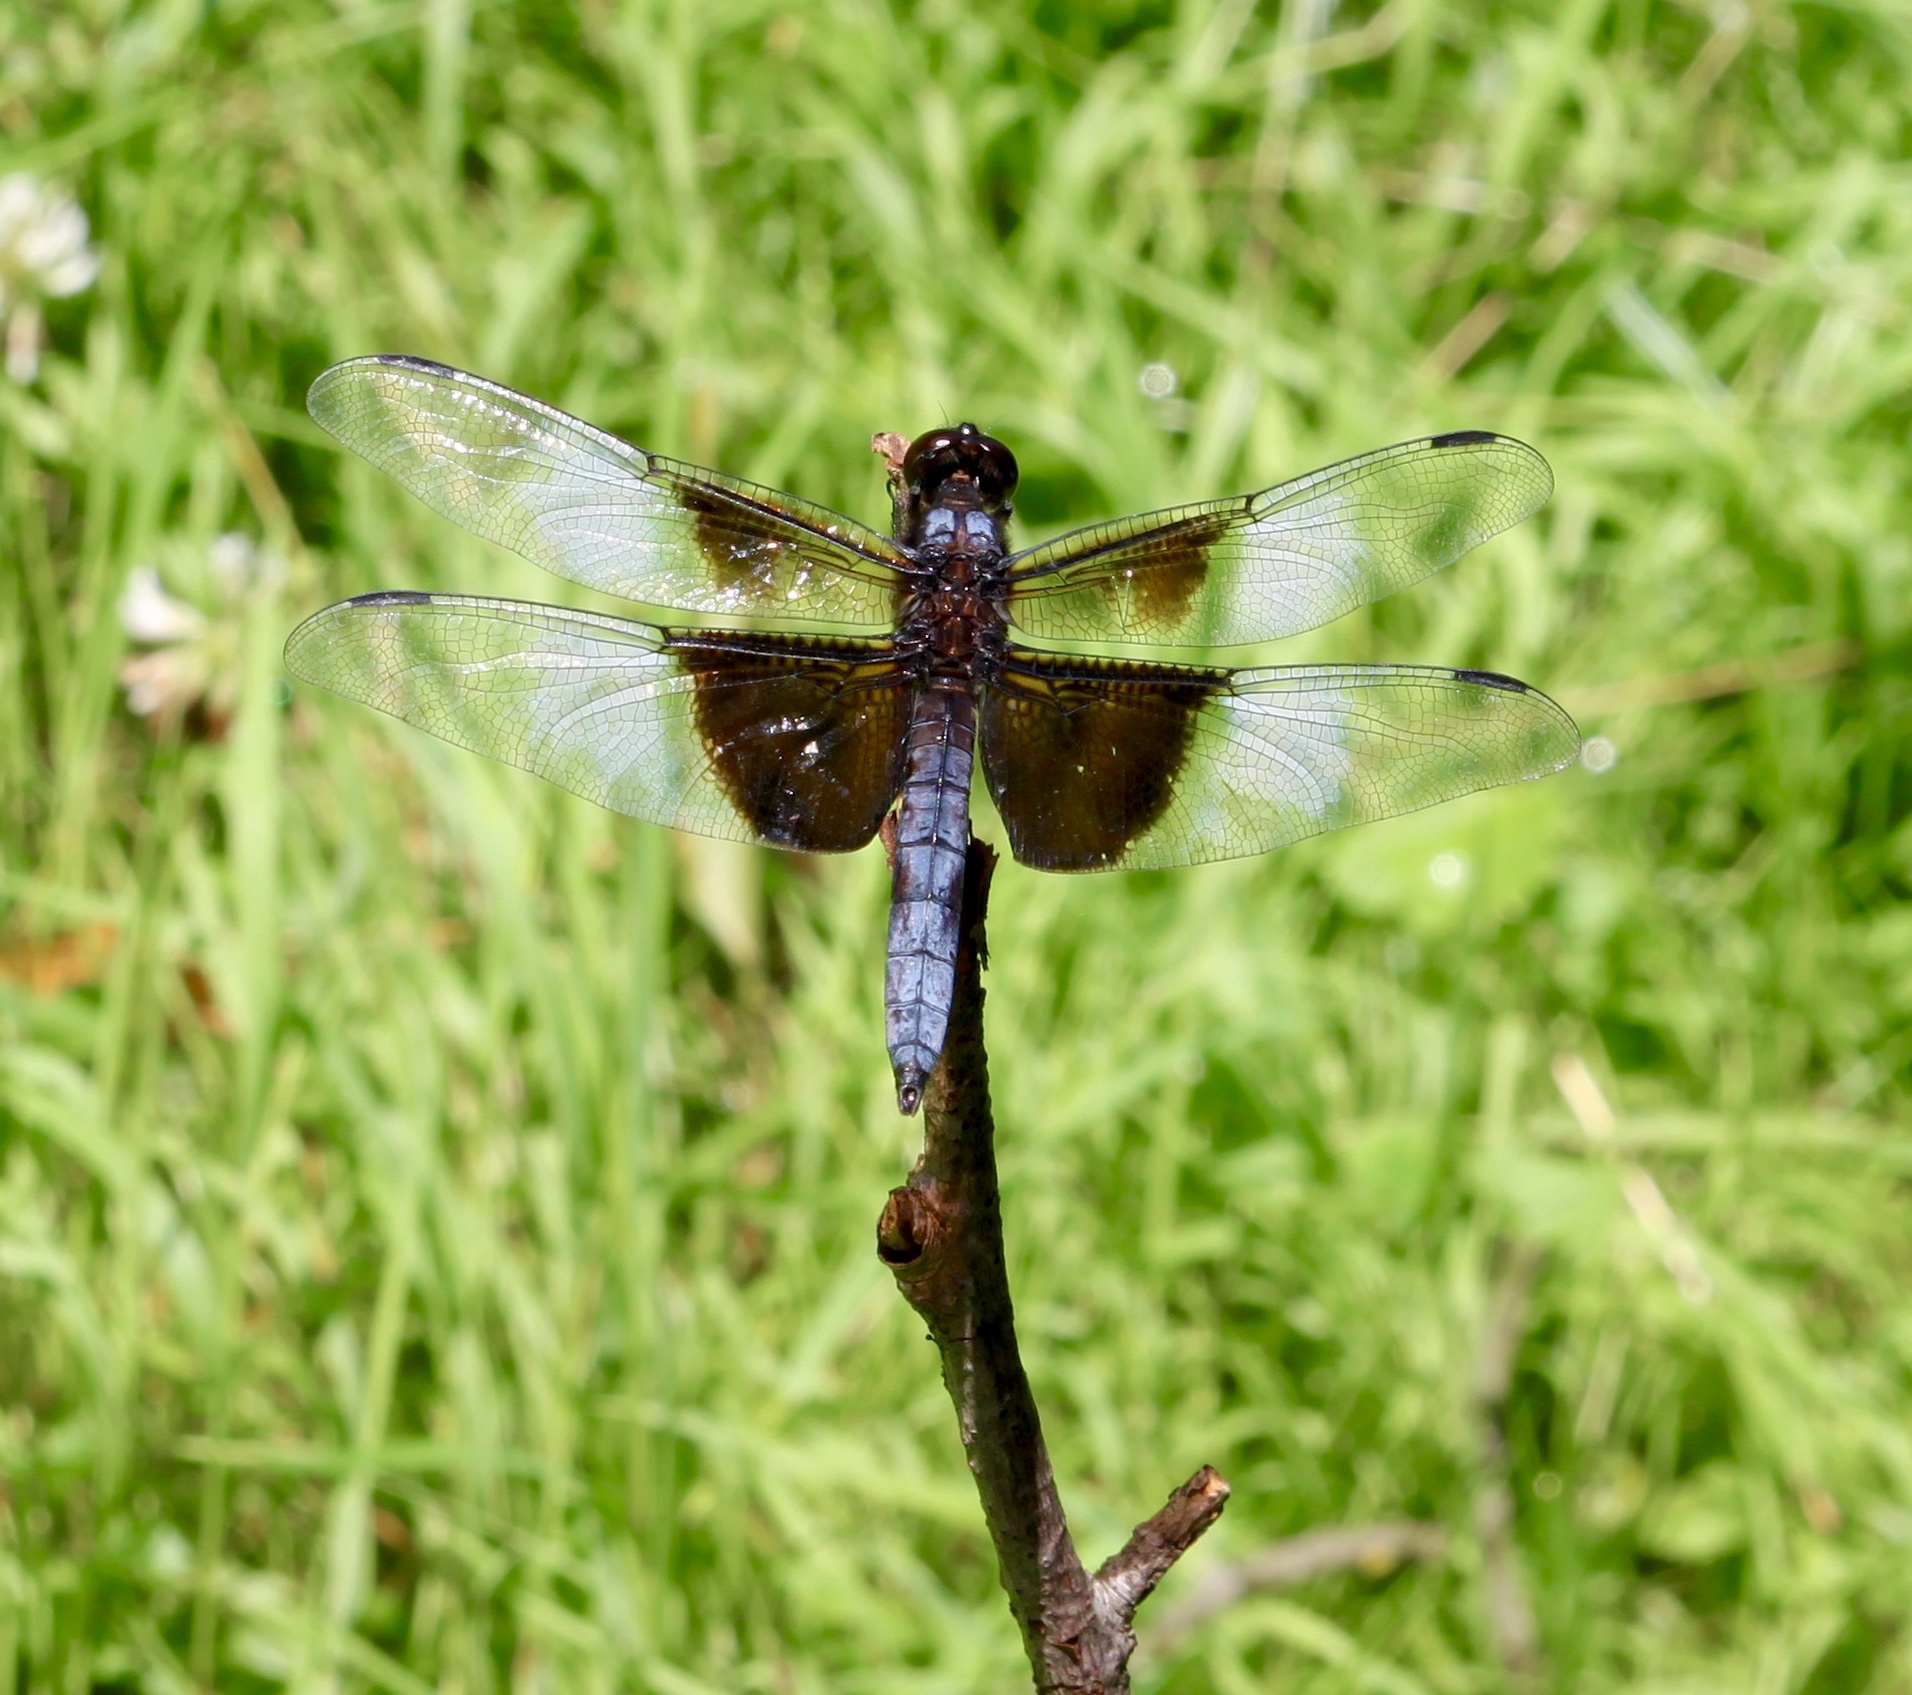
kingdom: Animalia
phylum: Arthropoda
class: Insecta
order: Odonata
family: Libellulidae
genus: Libellula
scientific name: Libellula luctuosa
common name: Widow skimmer
